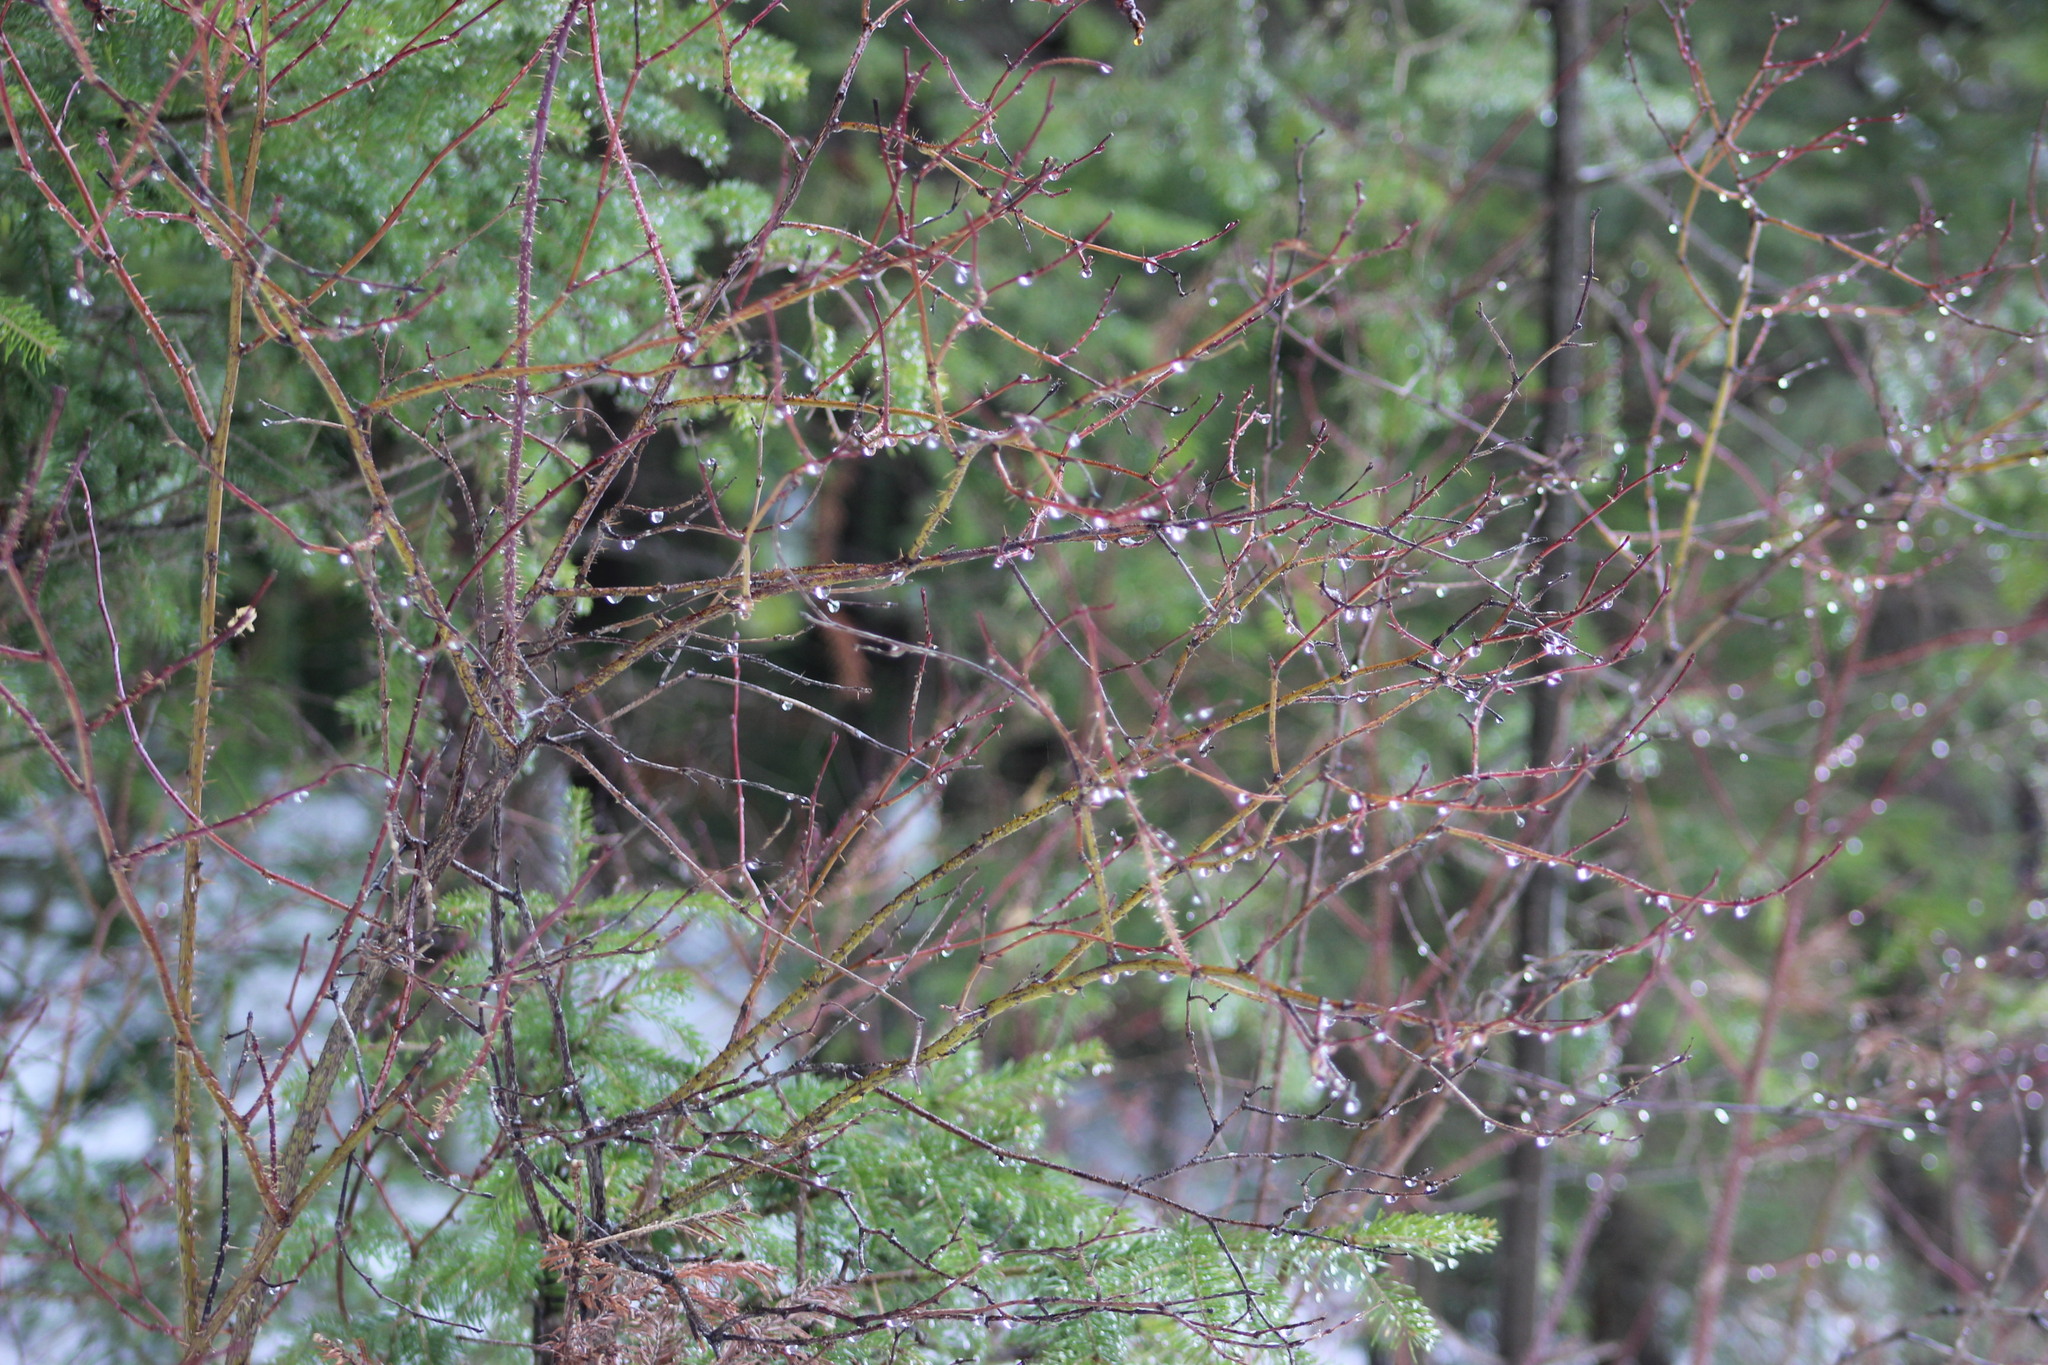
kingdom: Plantae
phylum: Tracheophyta
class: Magnoliopsida
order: Rosales
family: Rosaceae
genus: Rosa
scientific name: Rosa acicularis
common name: Prickly rose
